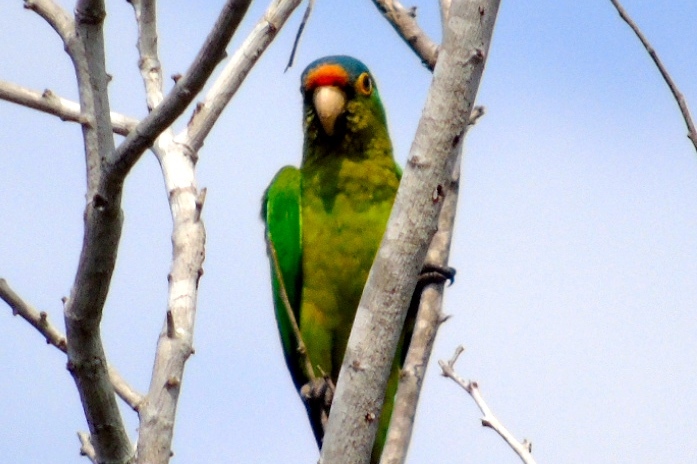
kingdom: Animalia
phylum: Chordata
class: Aves
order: Psittaciformes
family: Psittacidae
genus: Aratinga
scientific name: Aratinga canicularis
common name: Orange-fronted parakeet
